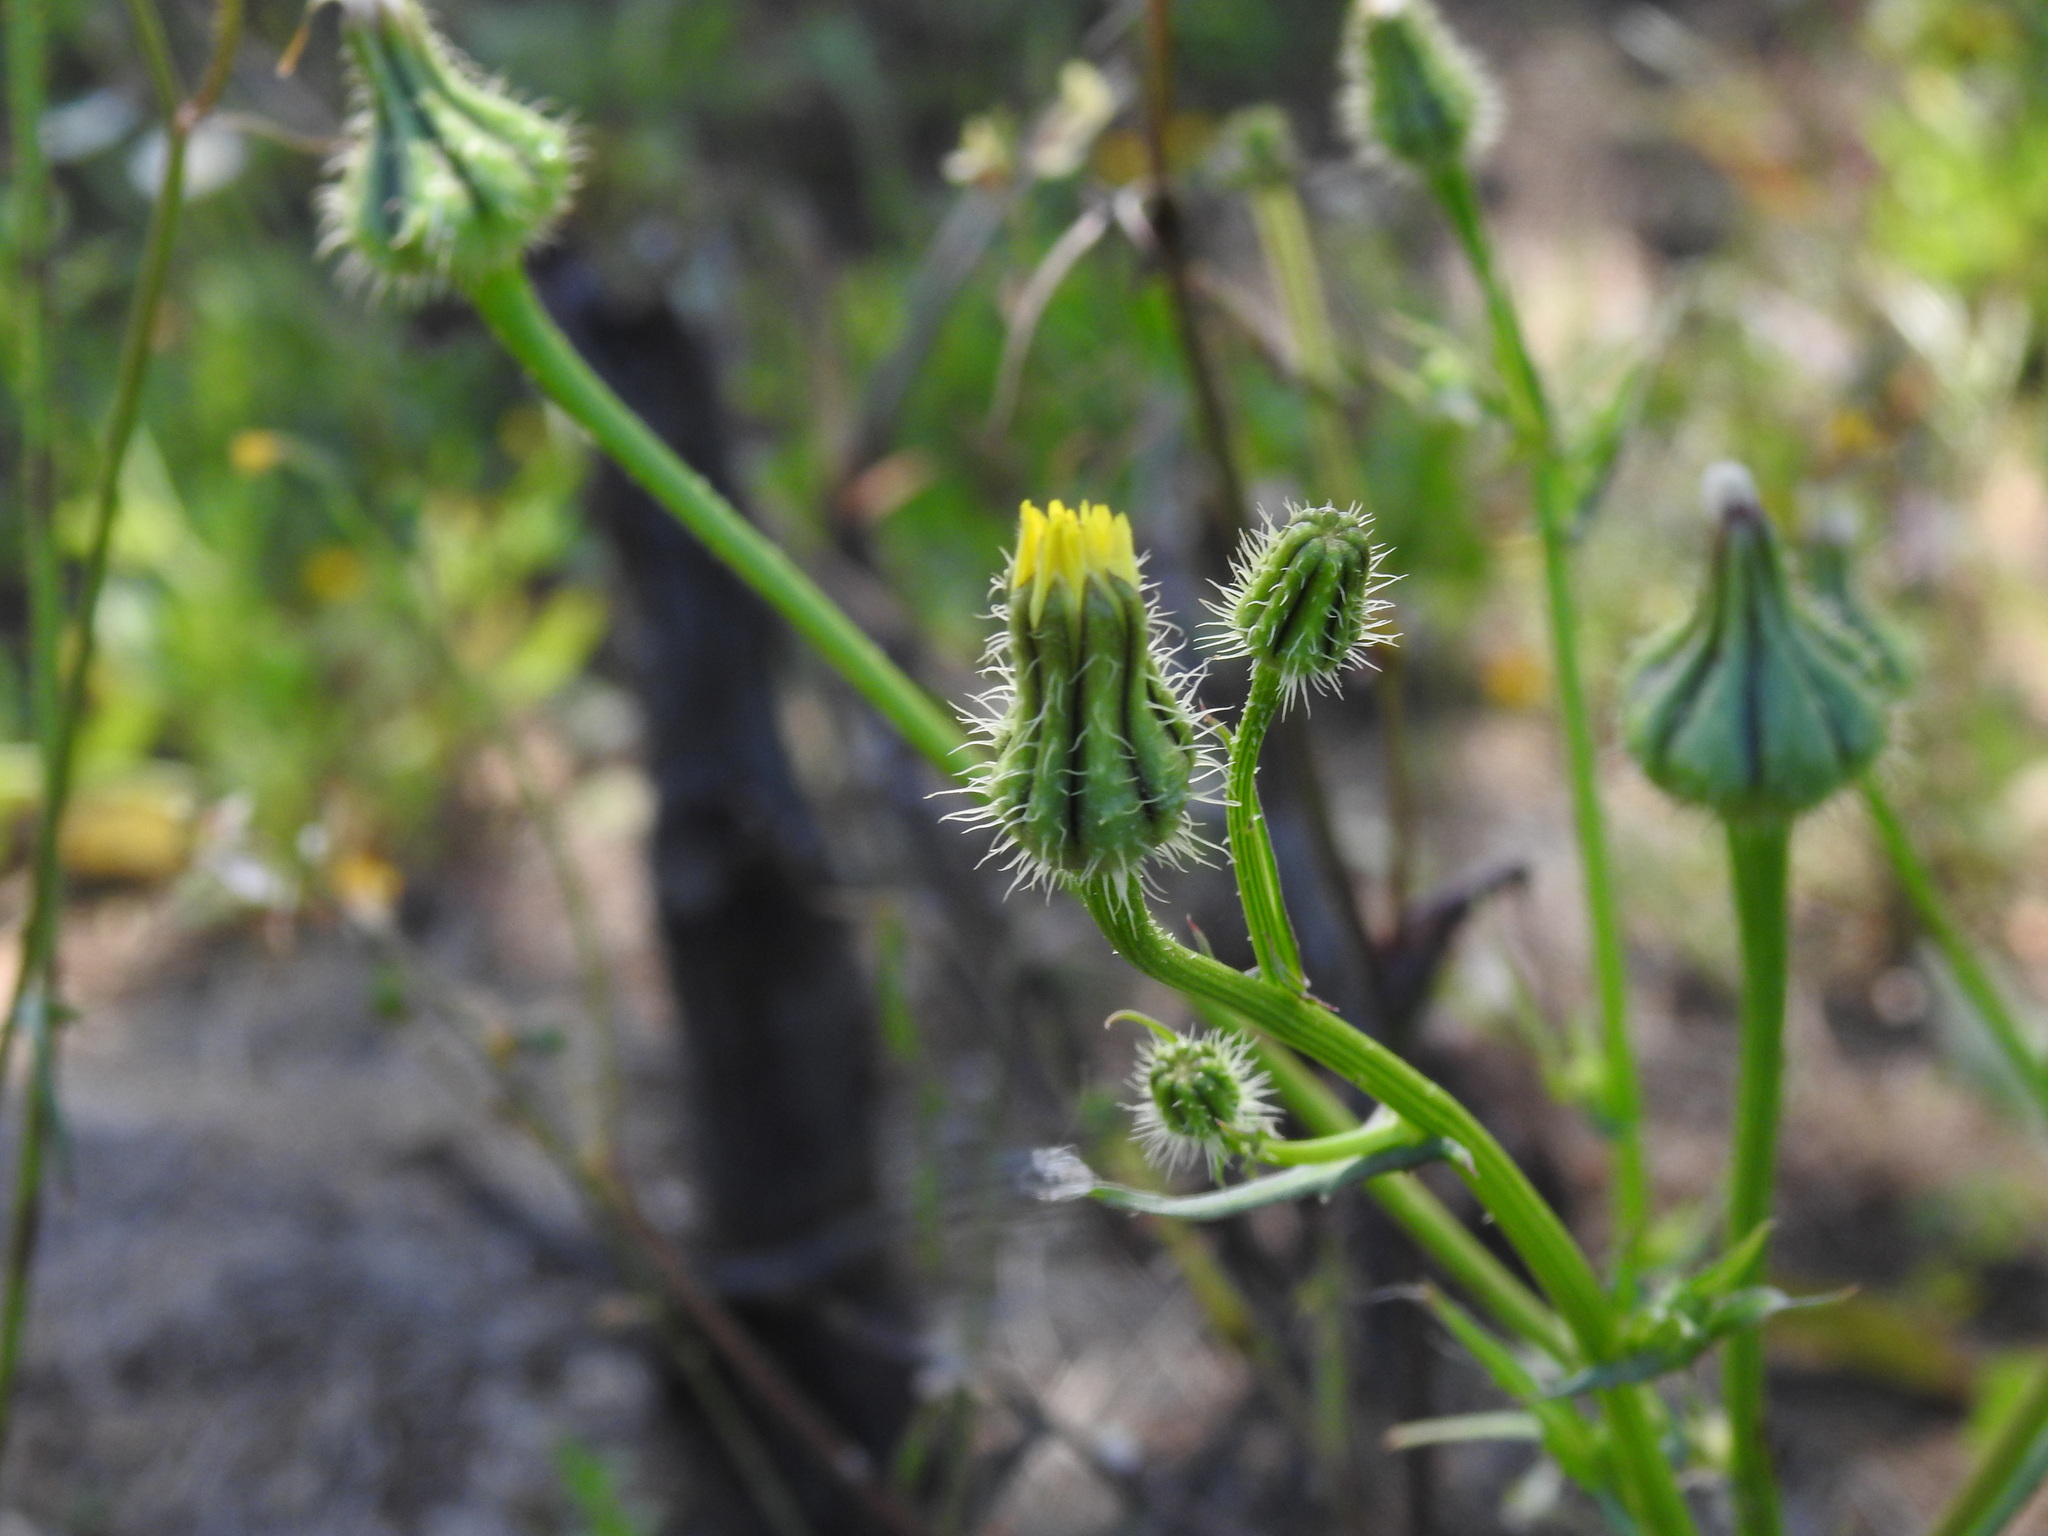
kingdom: Plantae
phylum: Tracheophyta
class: Magnoliopsida
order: Asterales
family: Asteraceae
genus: Urospermum
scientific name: Urospermum picroides
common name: False hawkbit
